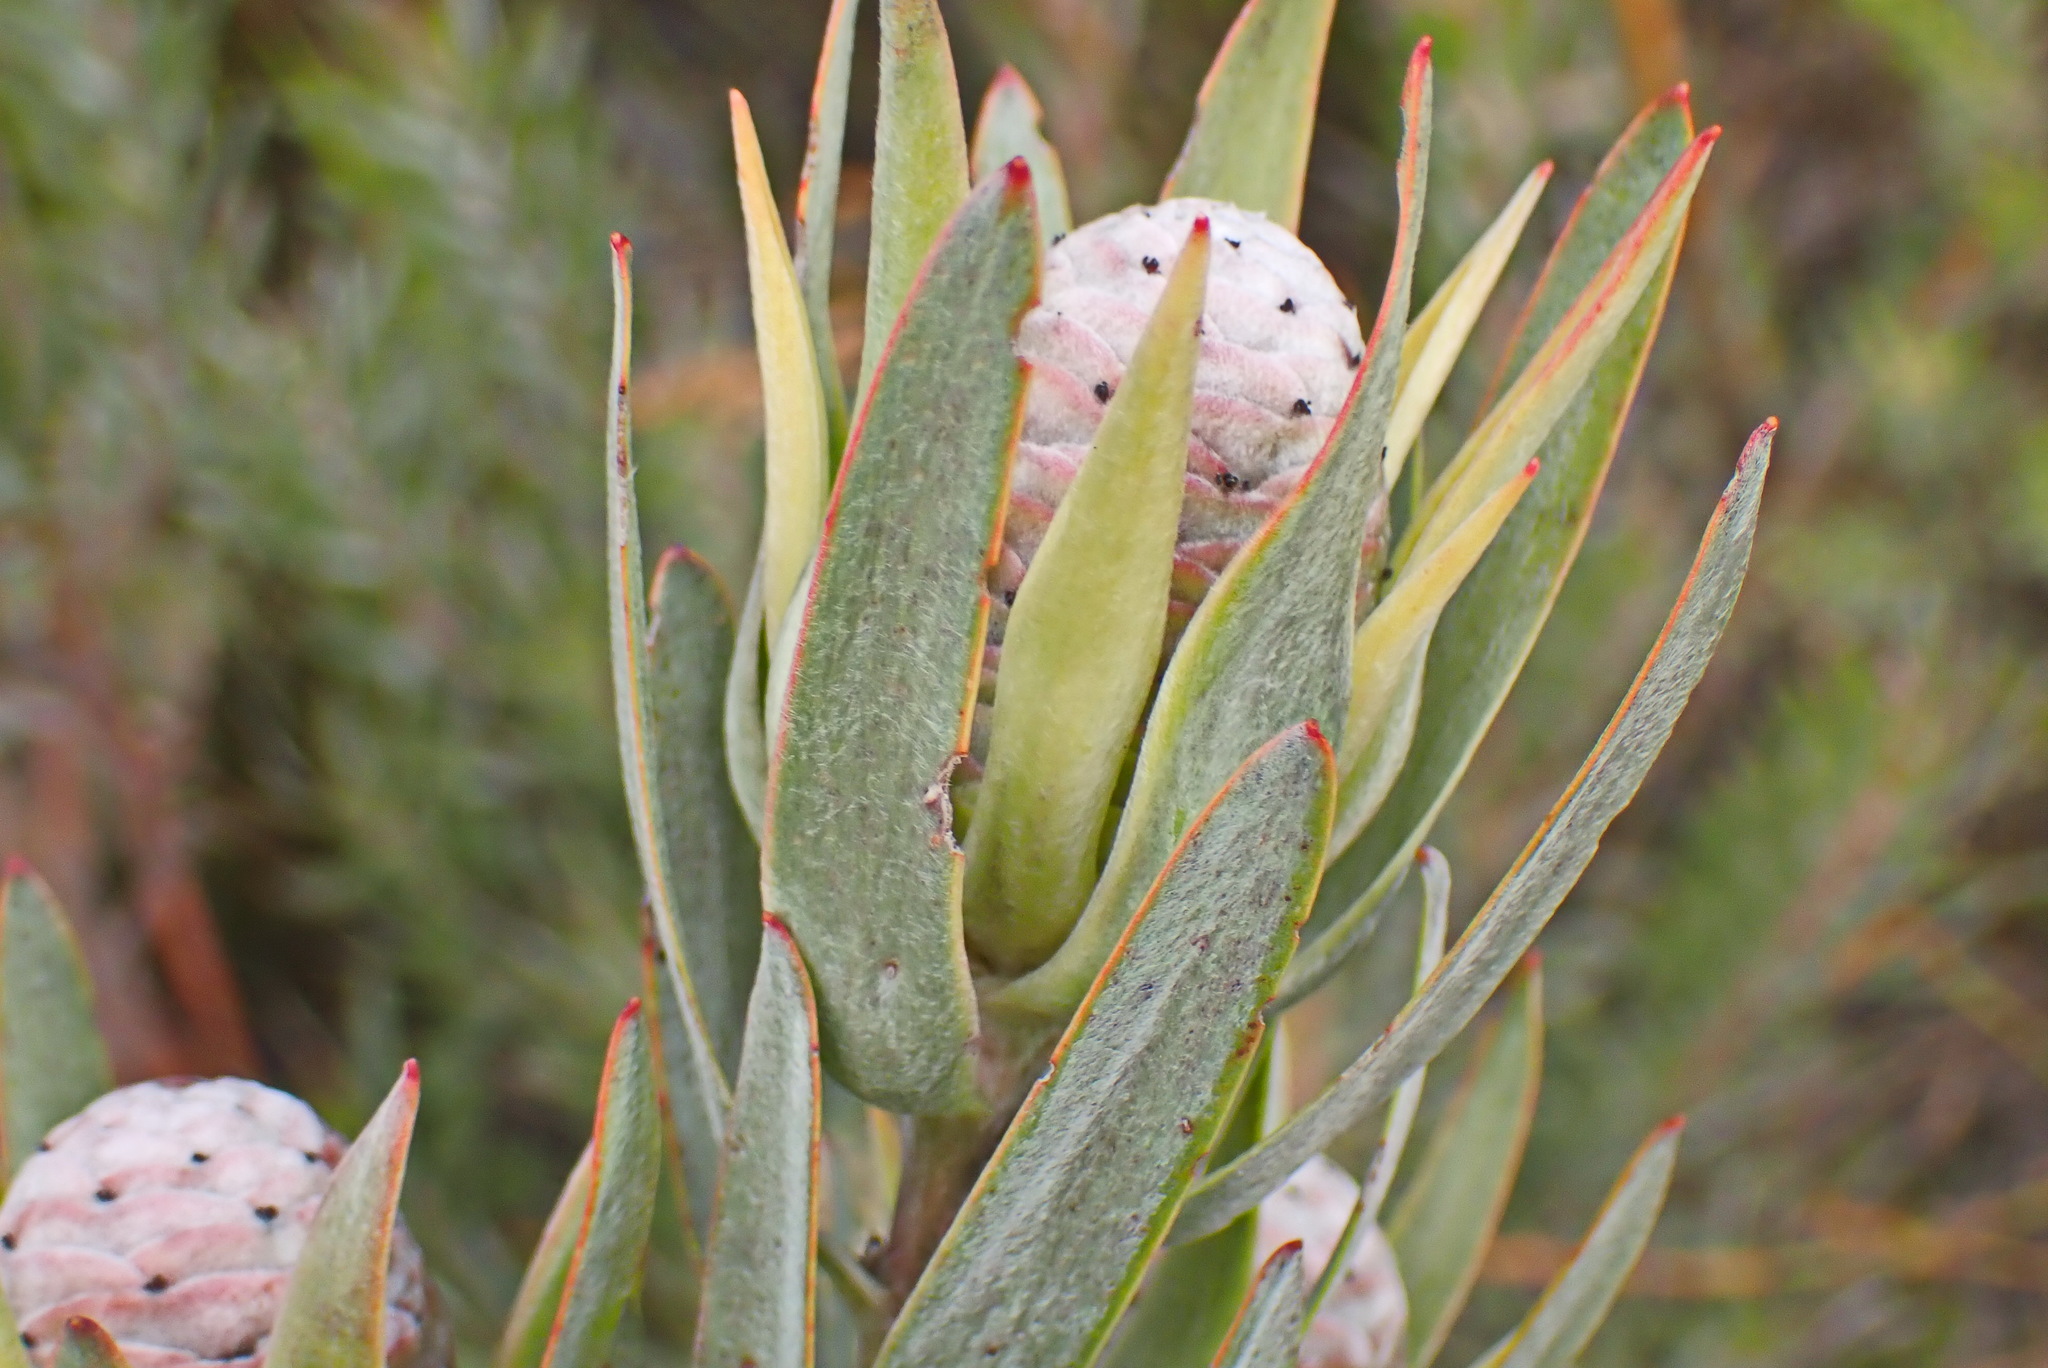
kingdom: Plantae
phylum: Tracheophyta
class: Magnoliopsida
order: Proteales
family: Proteaceae
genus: Leucadendron
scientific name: Leucadendron uliginosum
